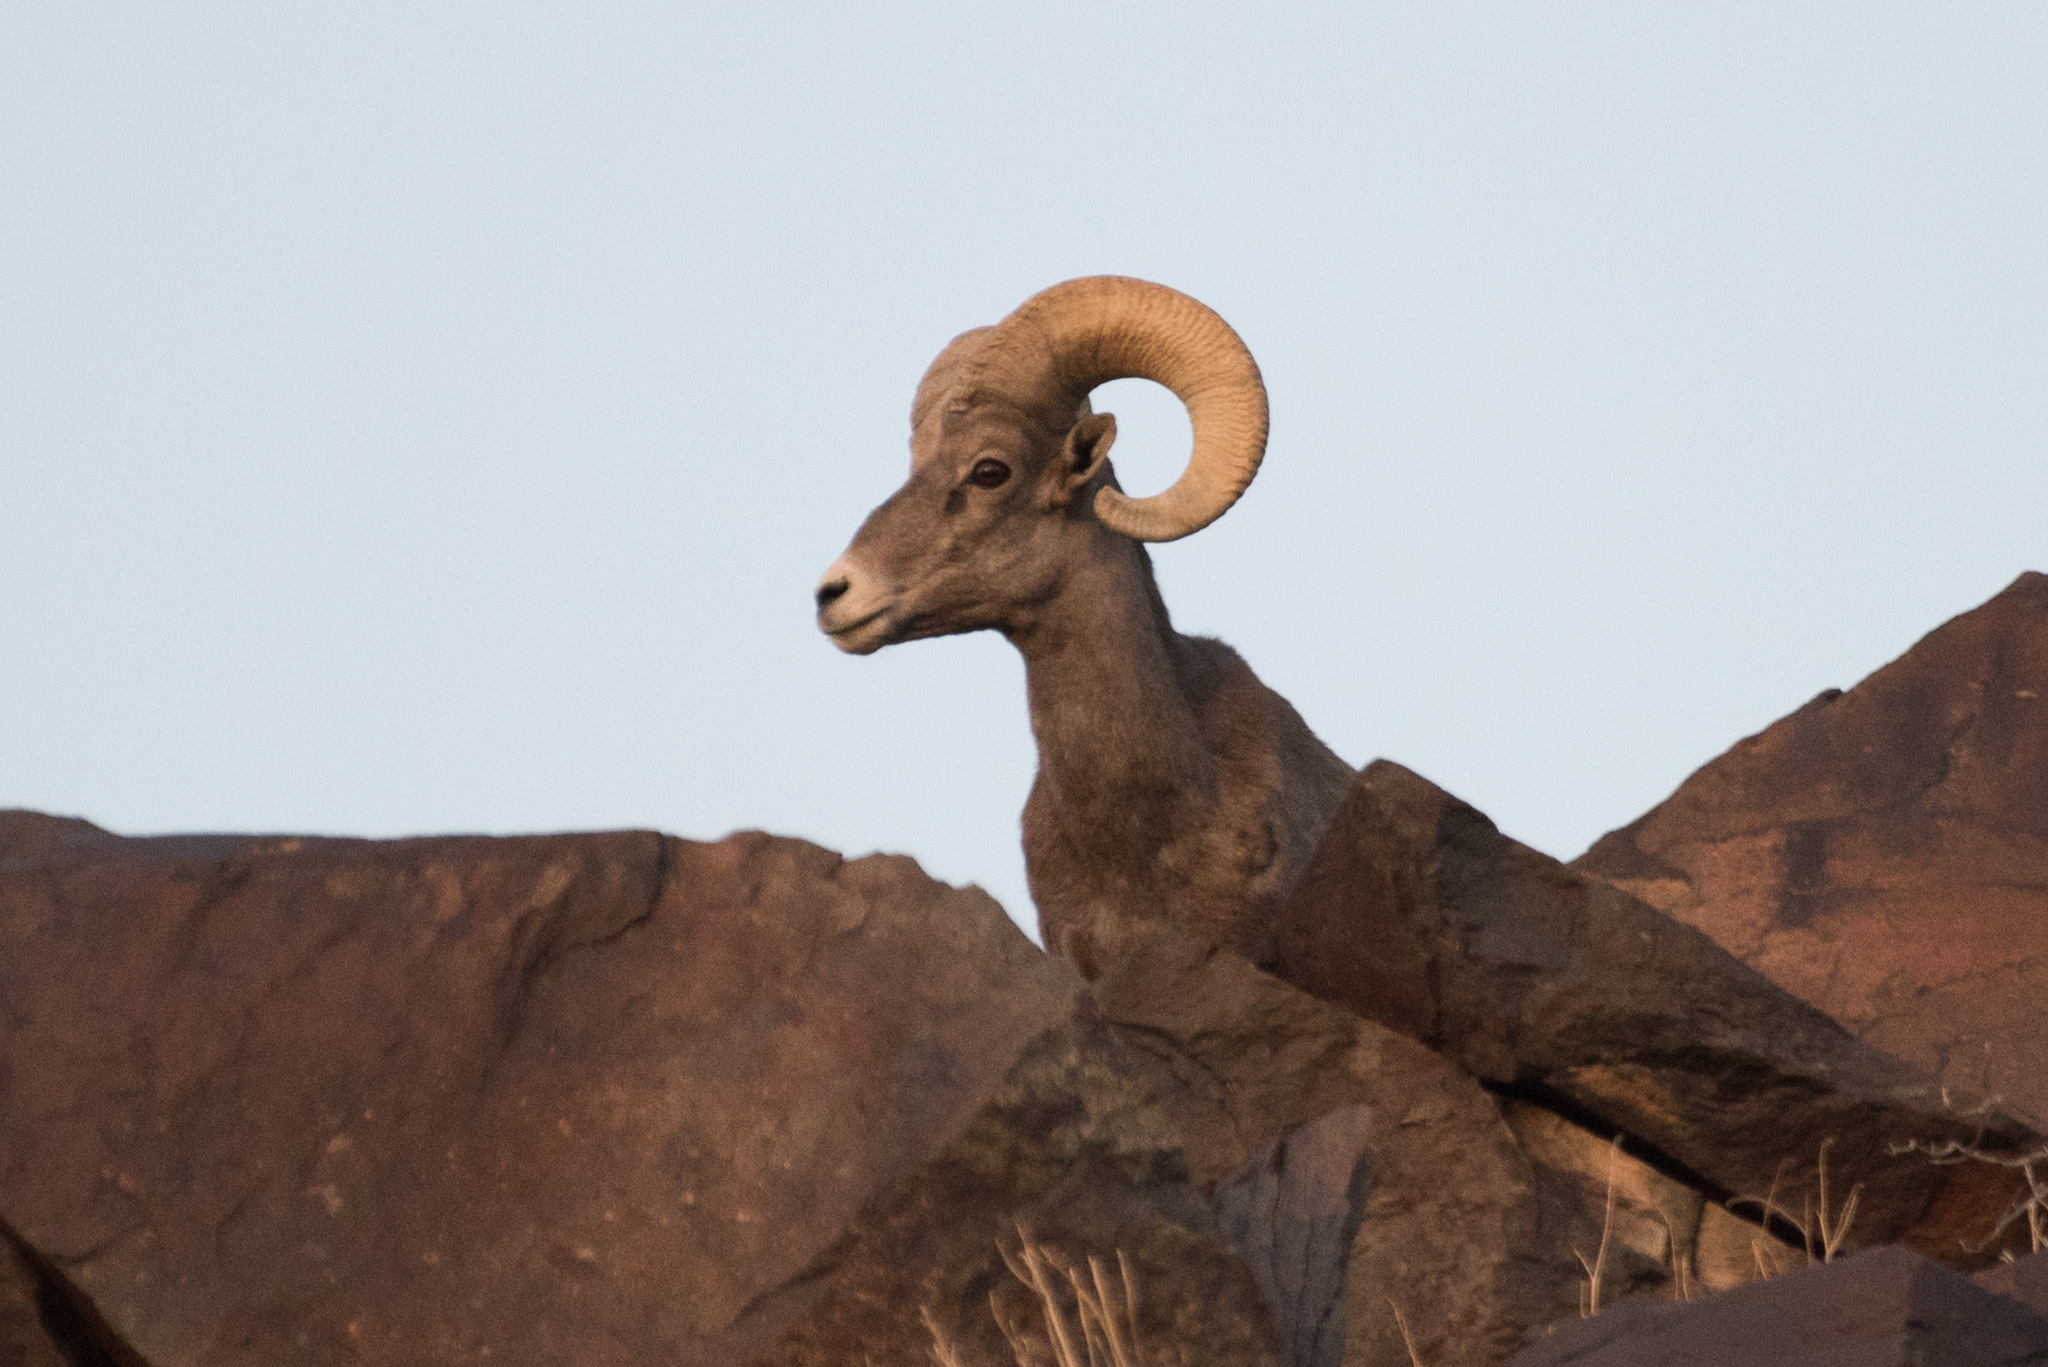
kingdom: Animalia
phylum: Chordata
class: Mammalia
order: Artiodactyla
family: Bovidae
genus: Ovis
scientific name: Ovis canadensis
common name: Bighorn sheep
